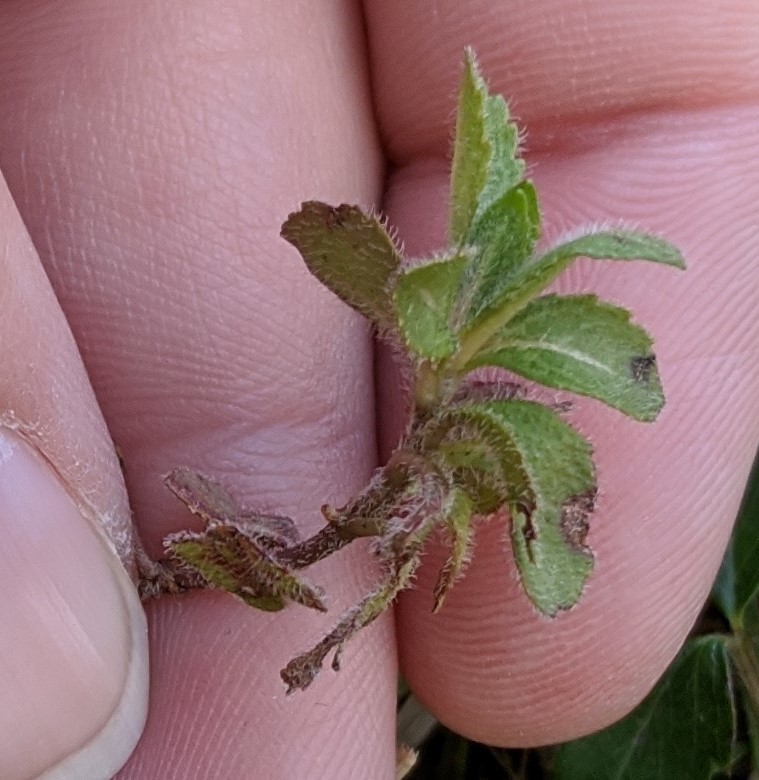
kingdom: Plantae
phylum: Tracheophyta
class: Magnoliopsida
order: Lamiales
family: Plantaginaceae
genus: Veronica
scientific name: Veronica officinalis
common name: Common speedwell
